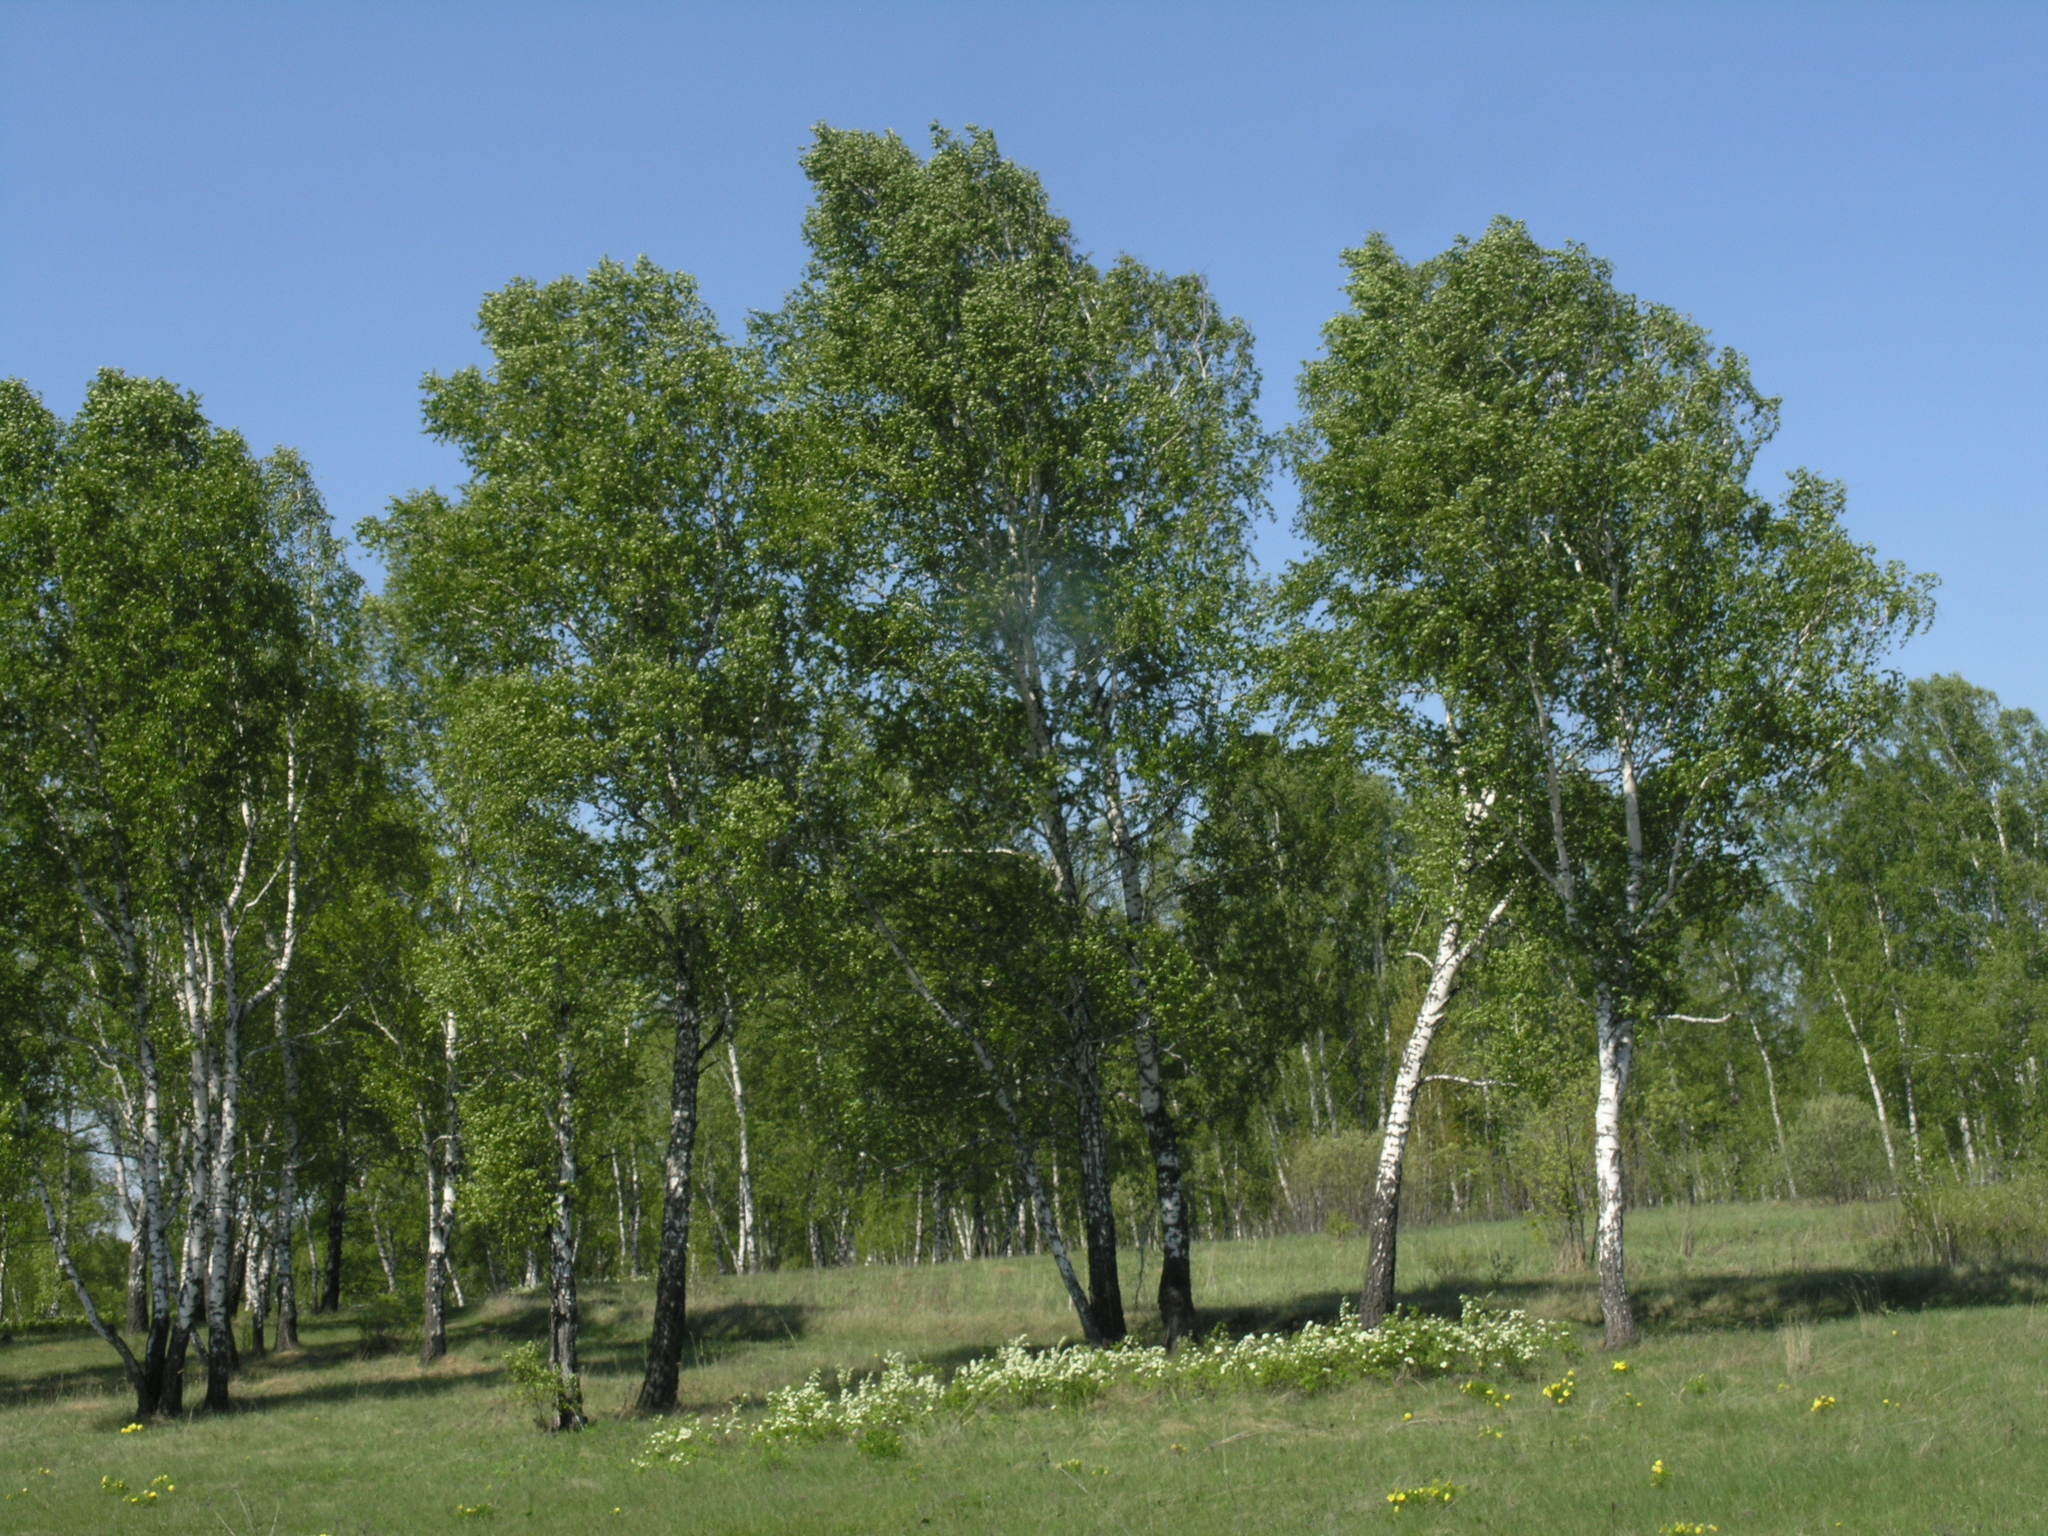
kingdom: Plantae
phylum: Tracheophyta
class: Magnoliopsida
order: Fagales
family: Betulaceae
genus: Betula
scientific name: Betula pendula
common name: Silver birch
